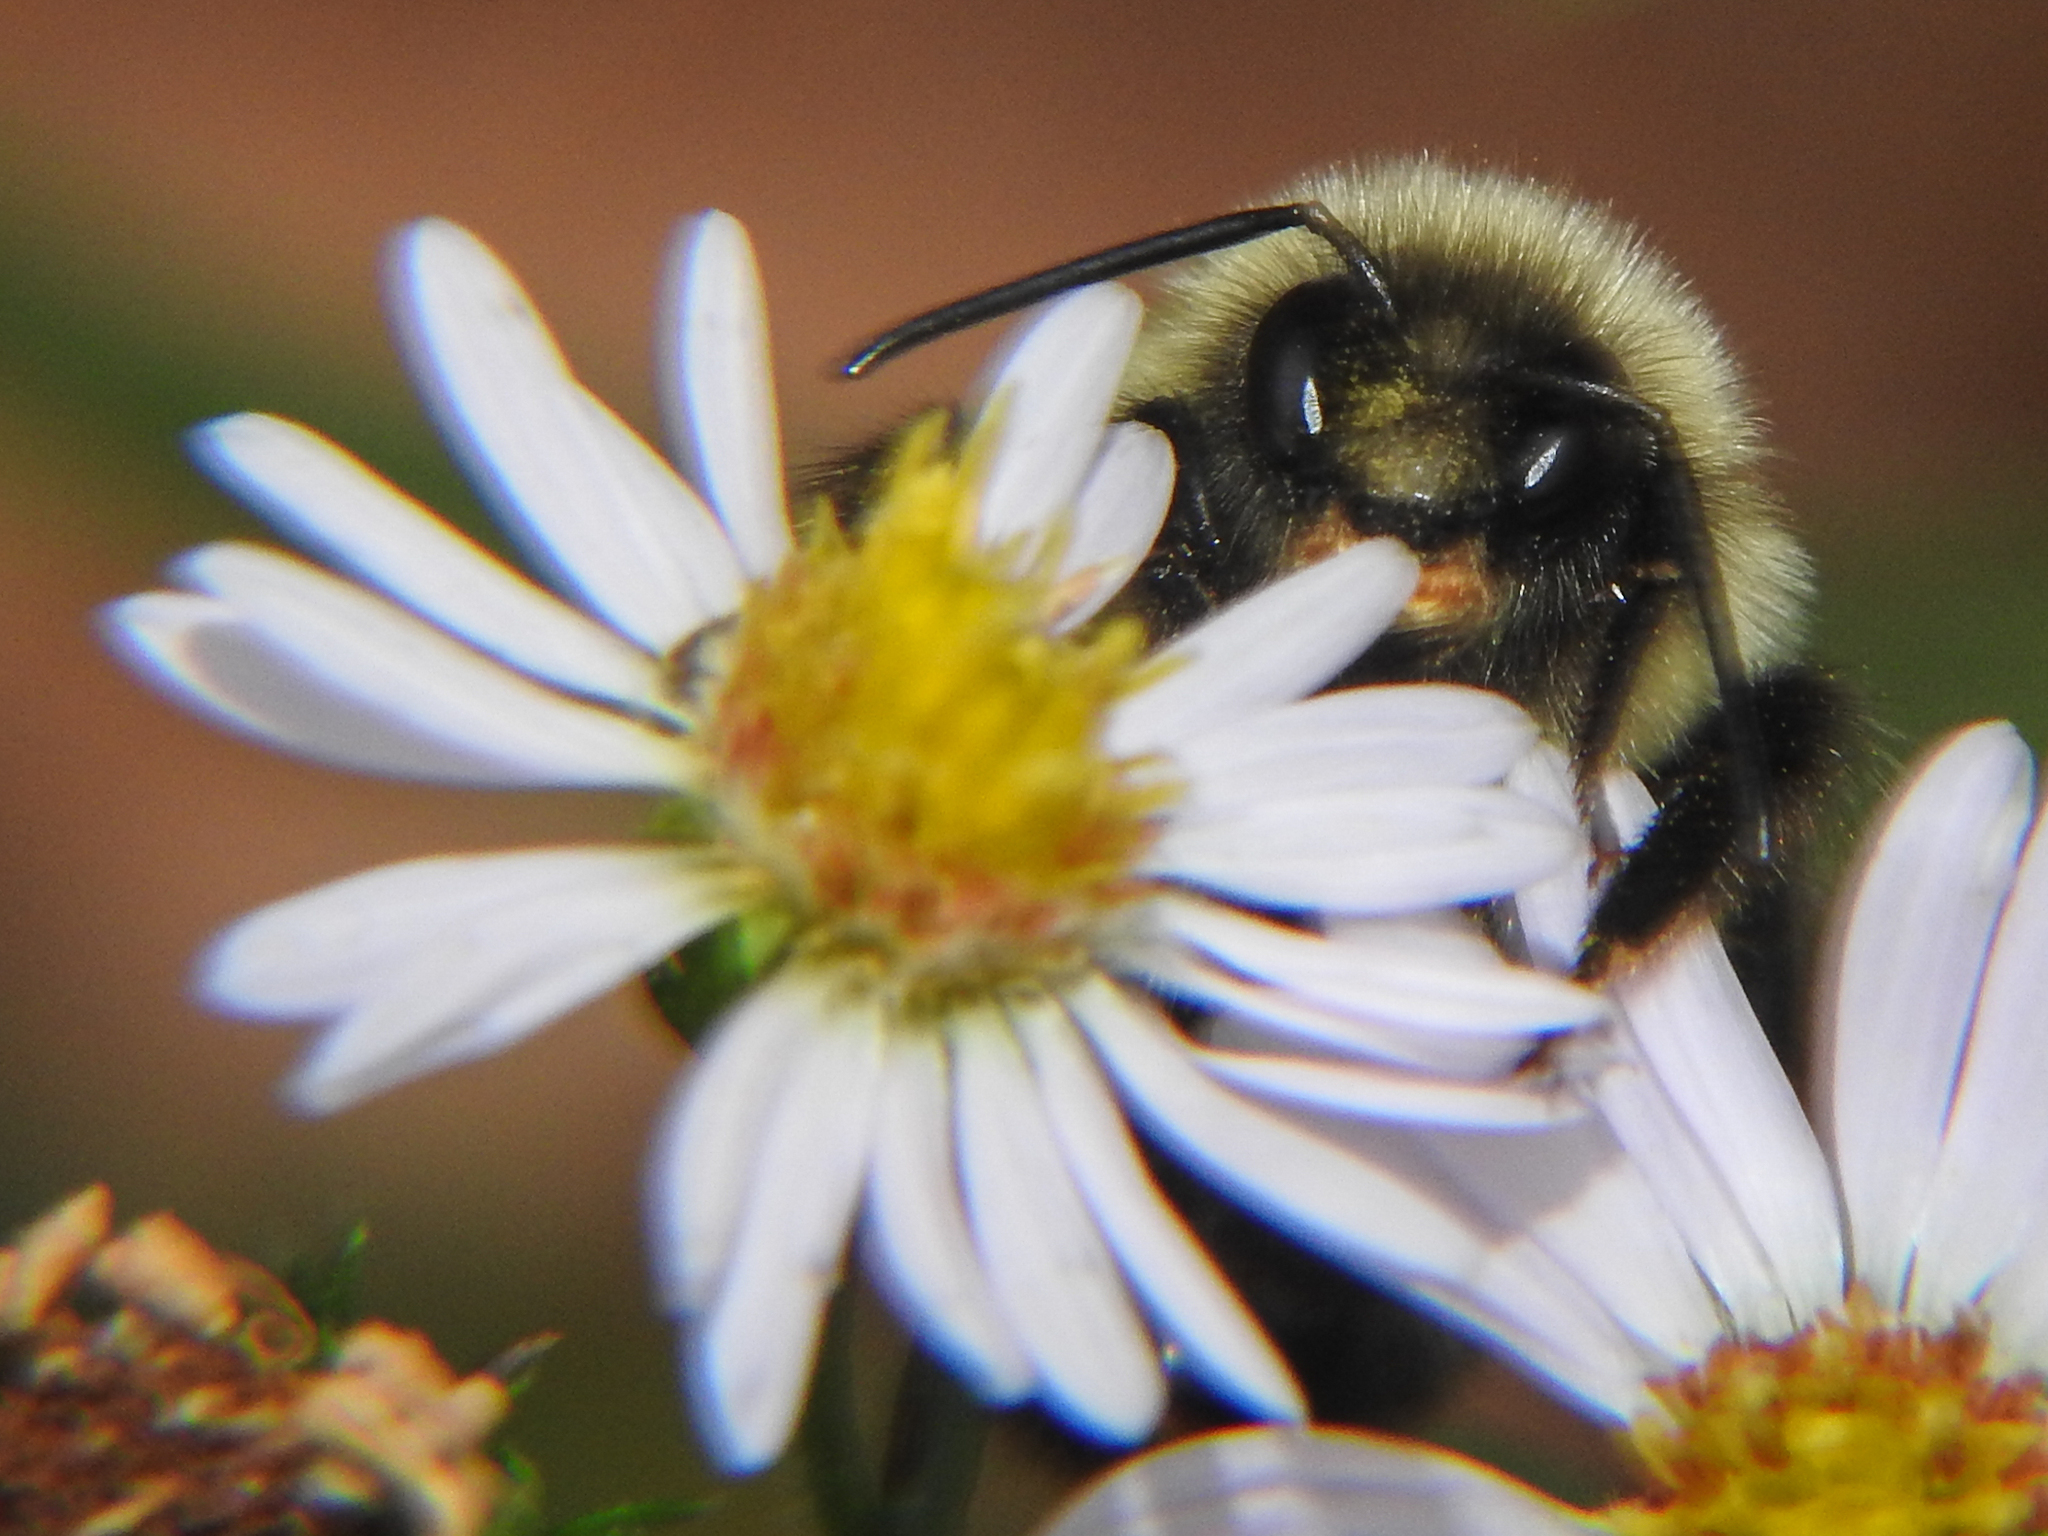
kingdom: Animalia
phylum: Arthropoda
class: Insecta
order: Hymenoptera
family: Apidae
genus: Bombus
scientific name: Bombus impatiens
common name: Common eastern bumble bee
